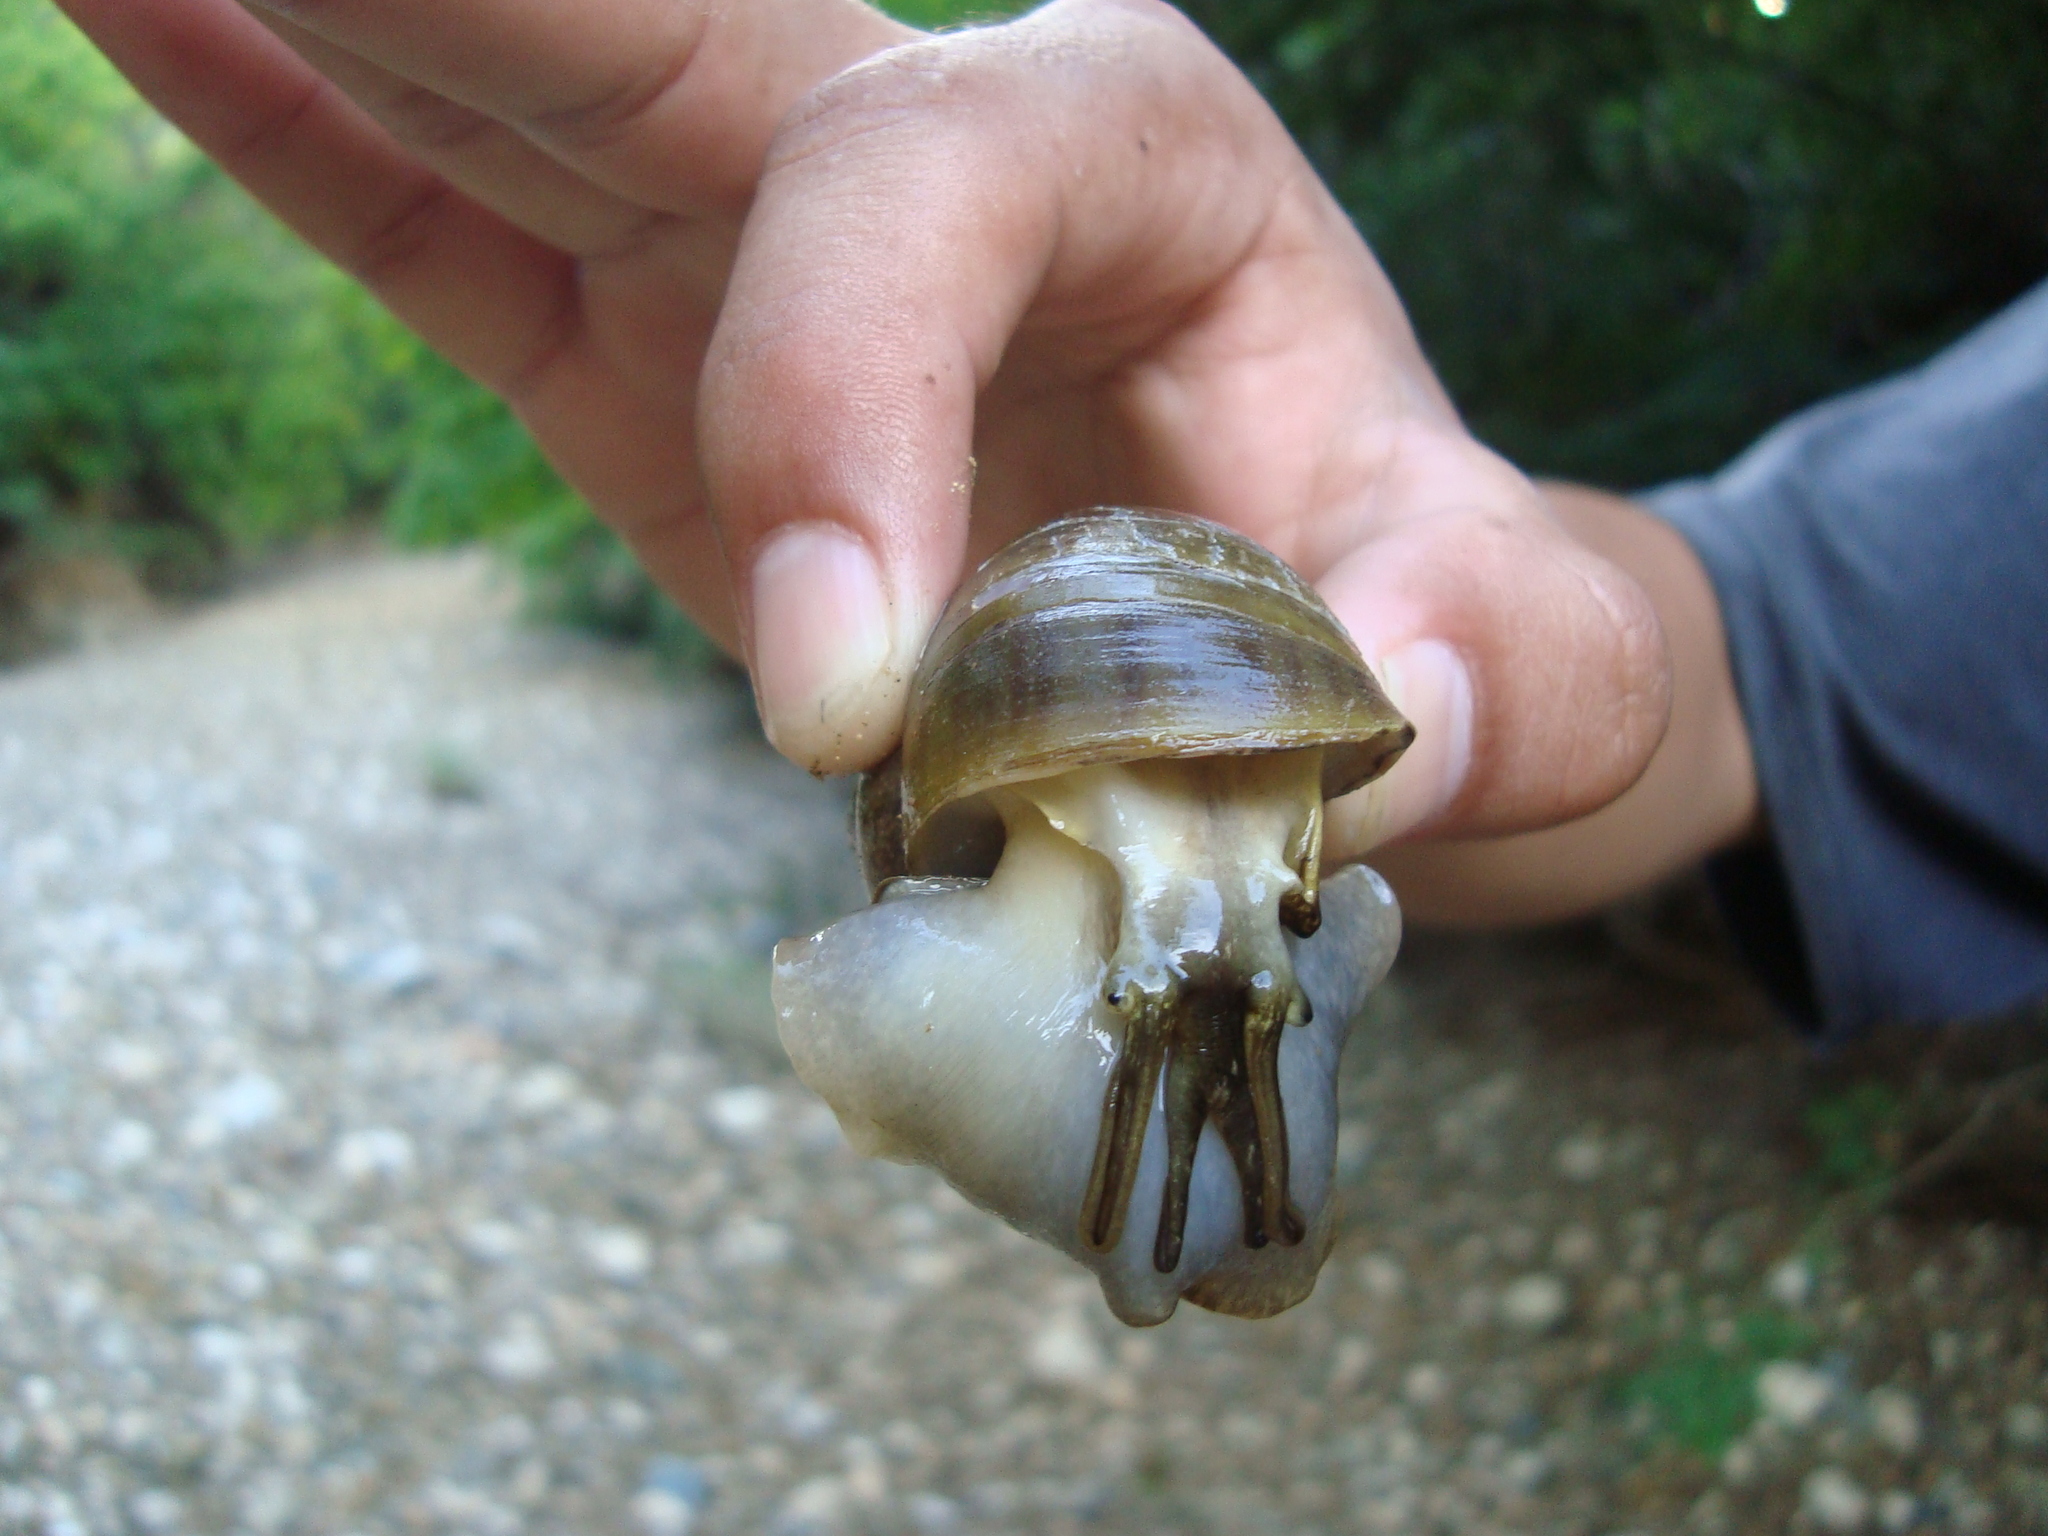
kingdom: Animalia
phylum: Mollusca
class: Gastropoda
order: Architaenioglossa
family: Ampullariidae
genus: Pomacea
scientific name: Pomacea flagellata
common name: Maya apple snail
